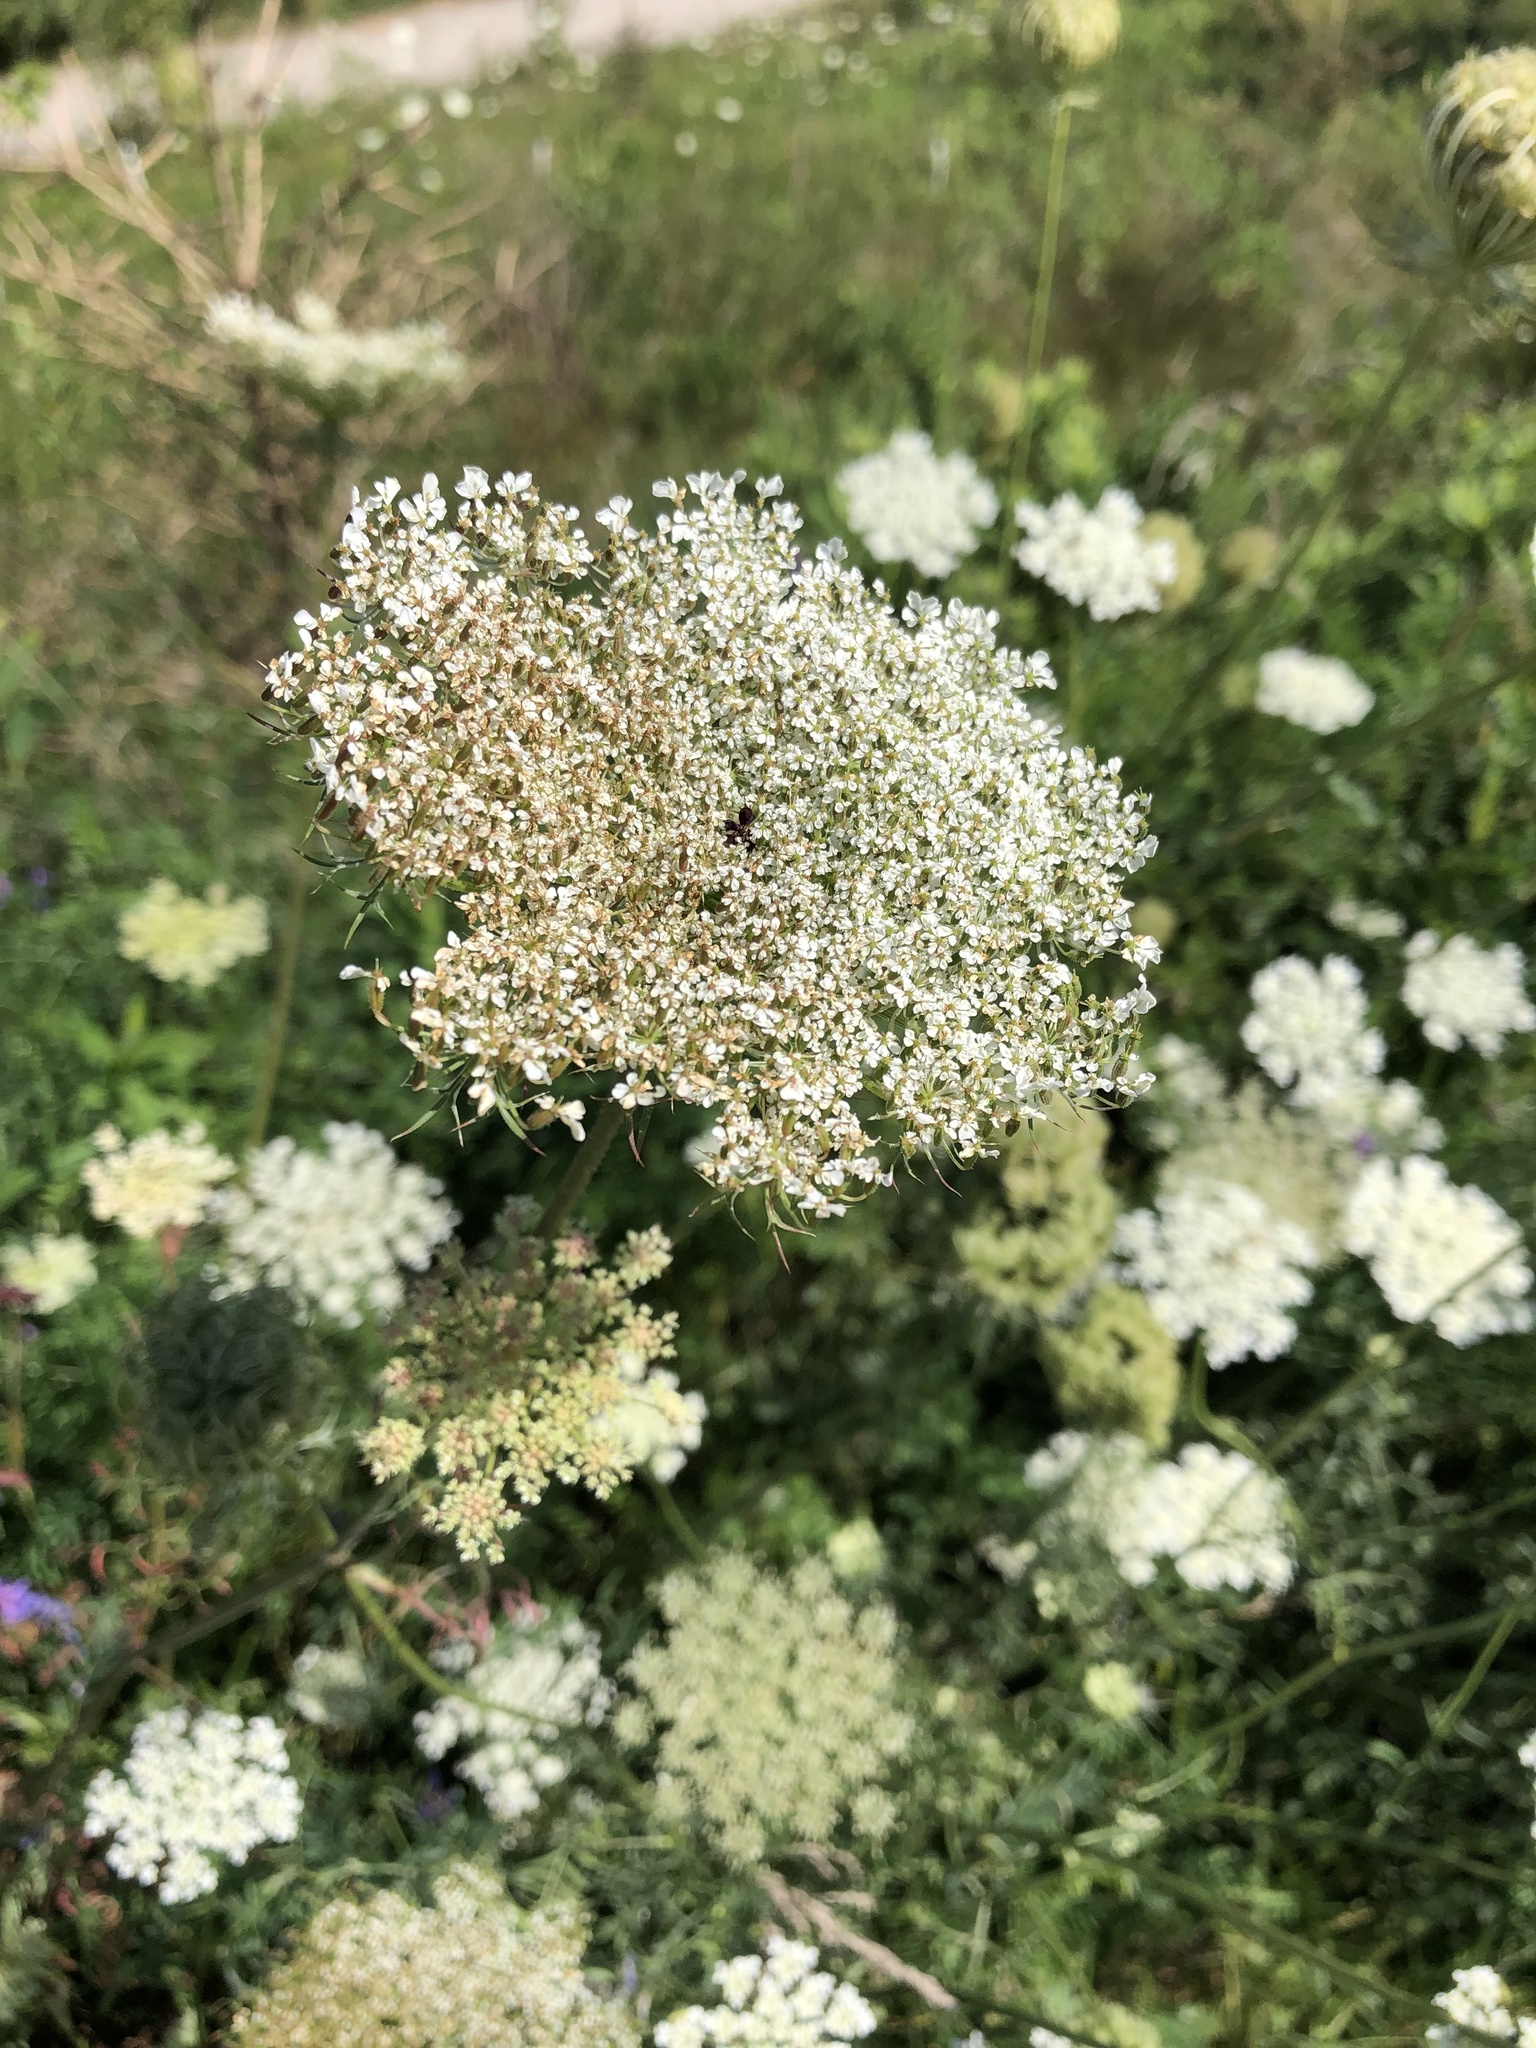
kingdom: Plantae
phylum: Tracheophyta
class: Magnoliopsida
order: Apiales
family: Apiaceae
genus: Daucus
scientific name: Daucus carota
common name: Wild carrot
